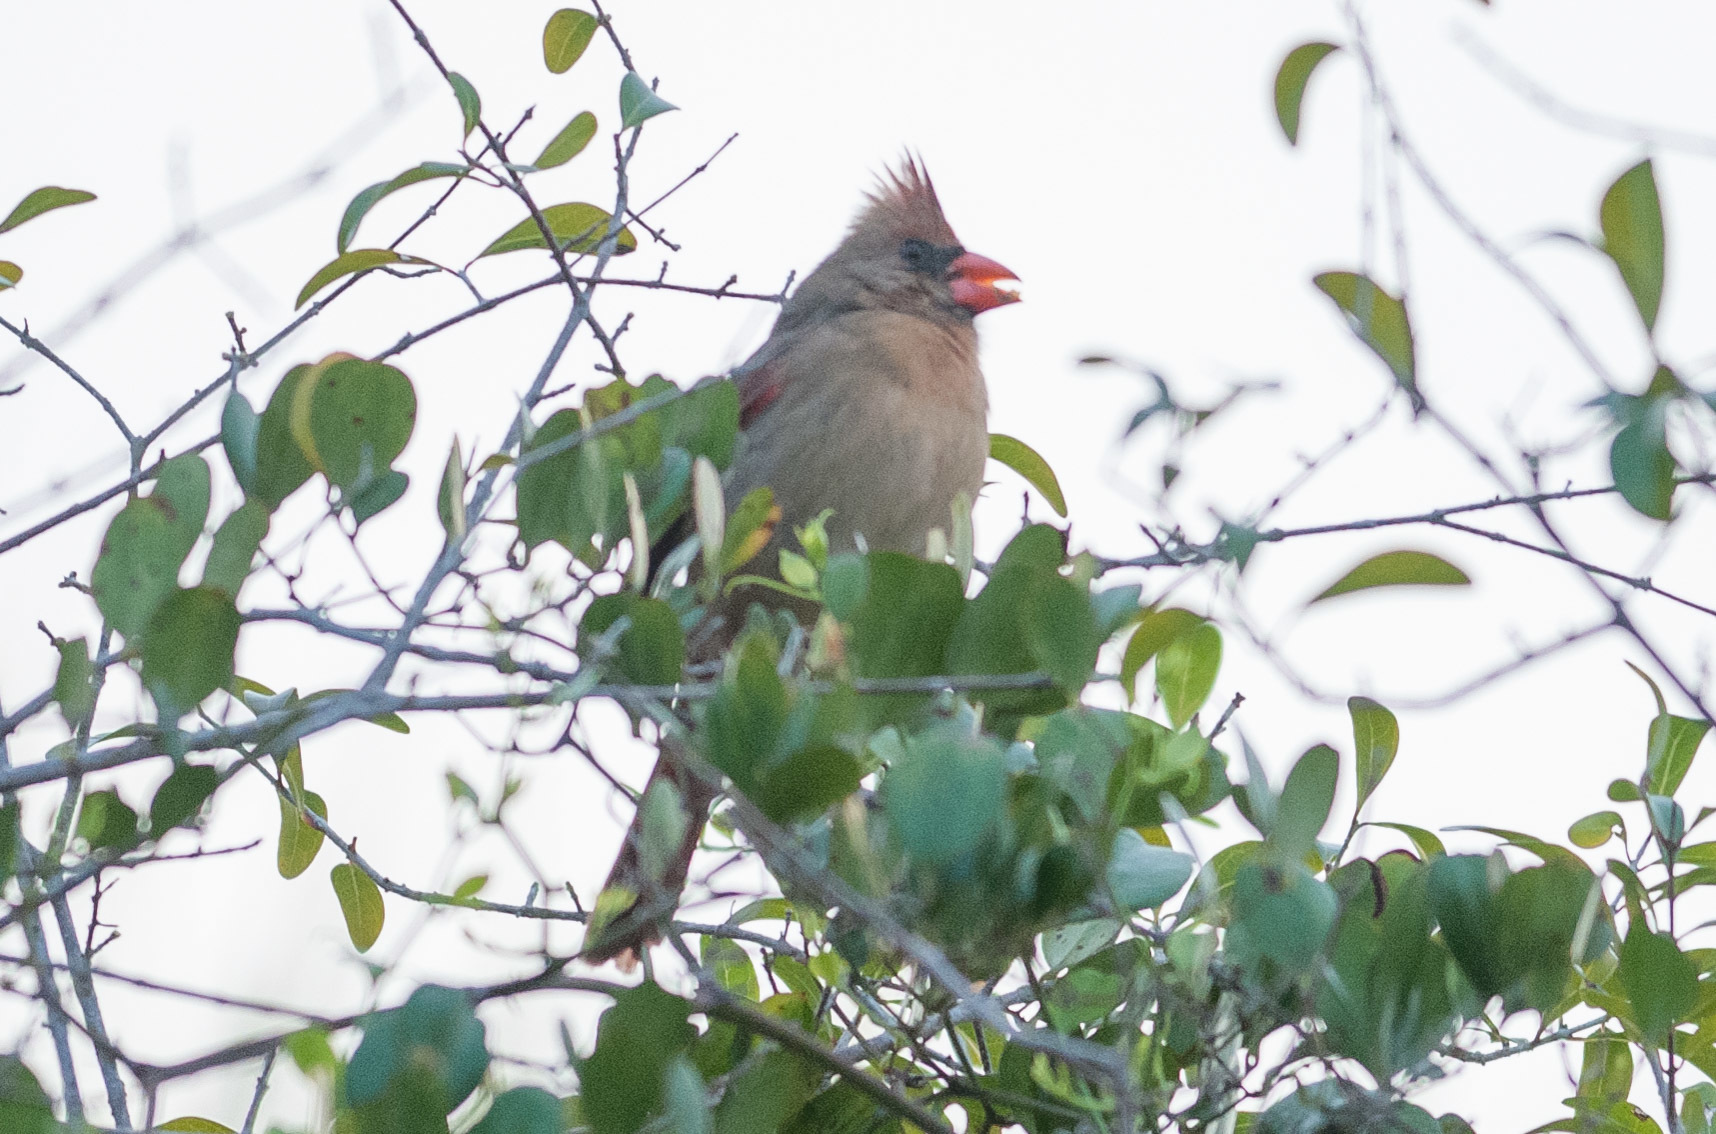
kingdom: Animalia
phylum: Chordata
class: Aves
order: Passeriformes
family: Cardinalidae
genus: Cardinalis
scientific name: Cardinalis cardinalis
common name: Northern cardinal
